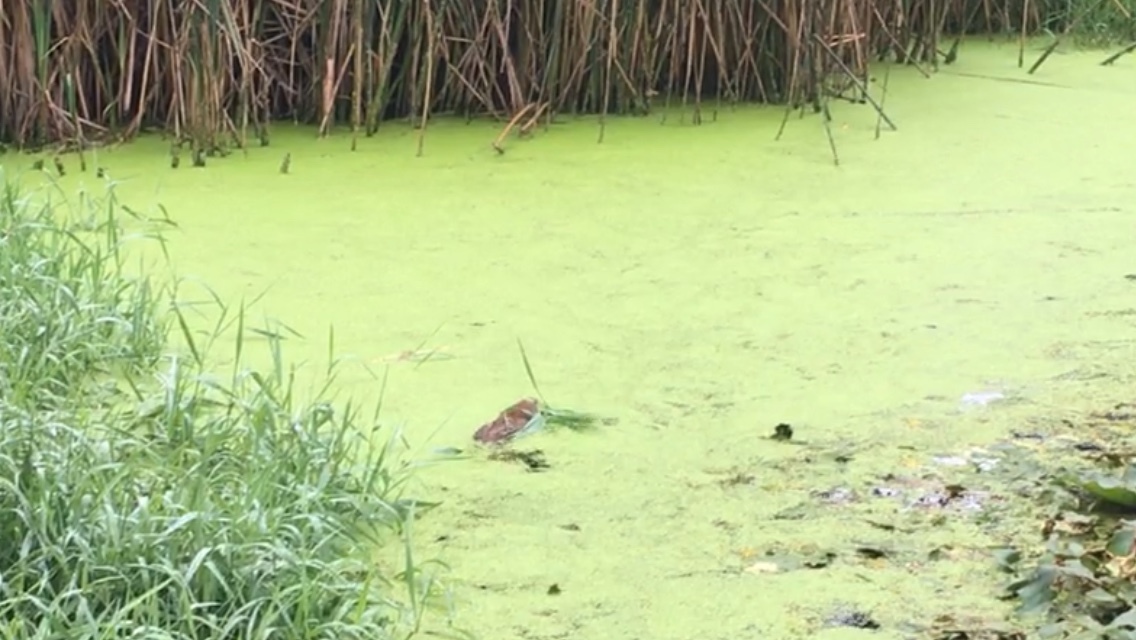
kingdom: Animalia
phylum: Chordata
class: Mammalia
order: Rodentia
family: Cricetidae
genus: Ondatra
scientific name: Ondatra zibethicus
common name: Muskrat
